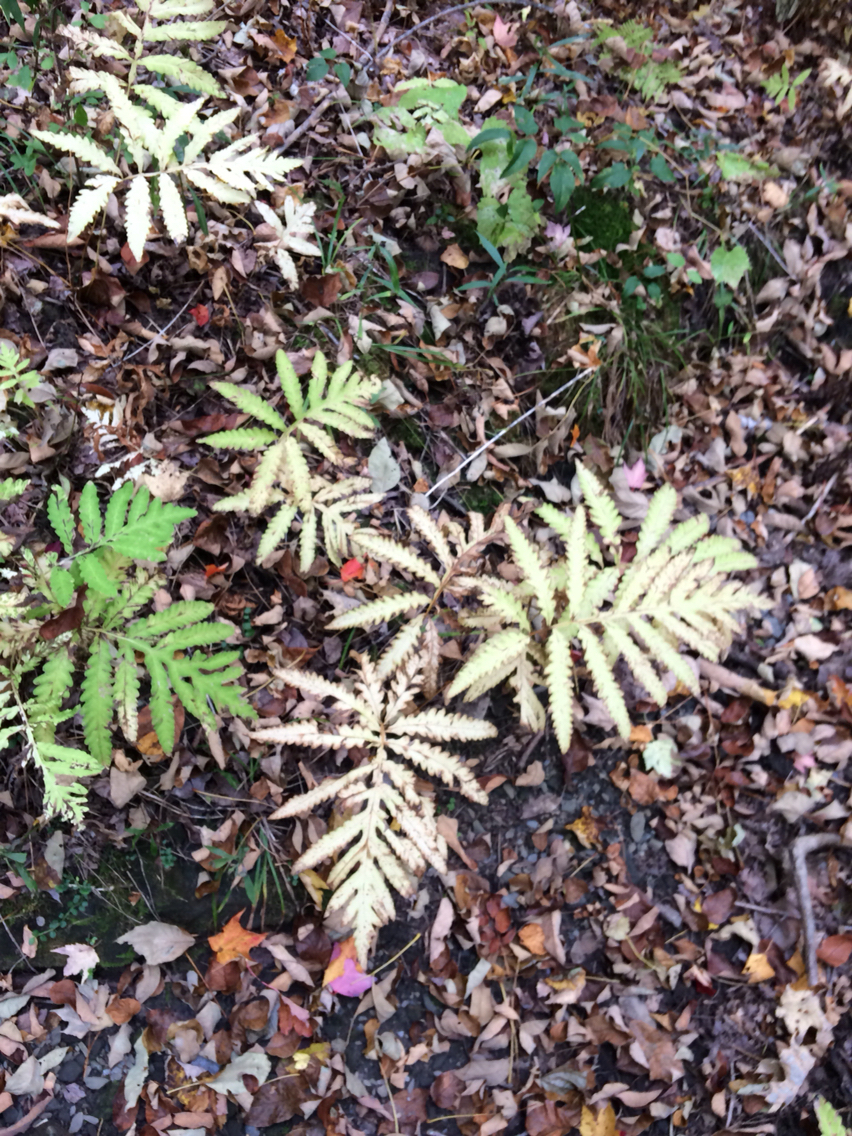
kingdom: Plantae
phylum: Tracheophyta
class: Polypodiopsida
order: Polypodiales
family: Onocleaceae
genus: Onoclea
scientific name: Onoclea sensibilis
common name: Sensitive fern
